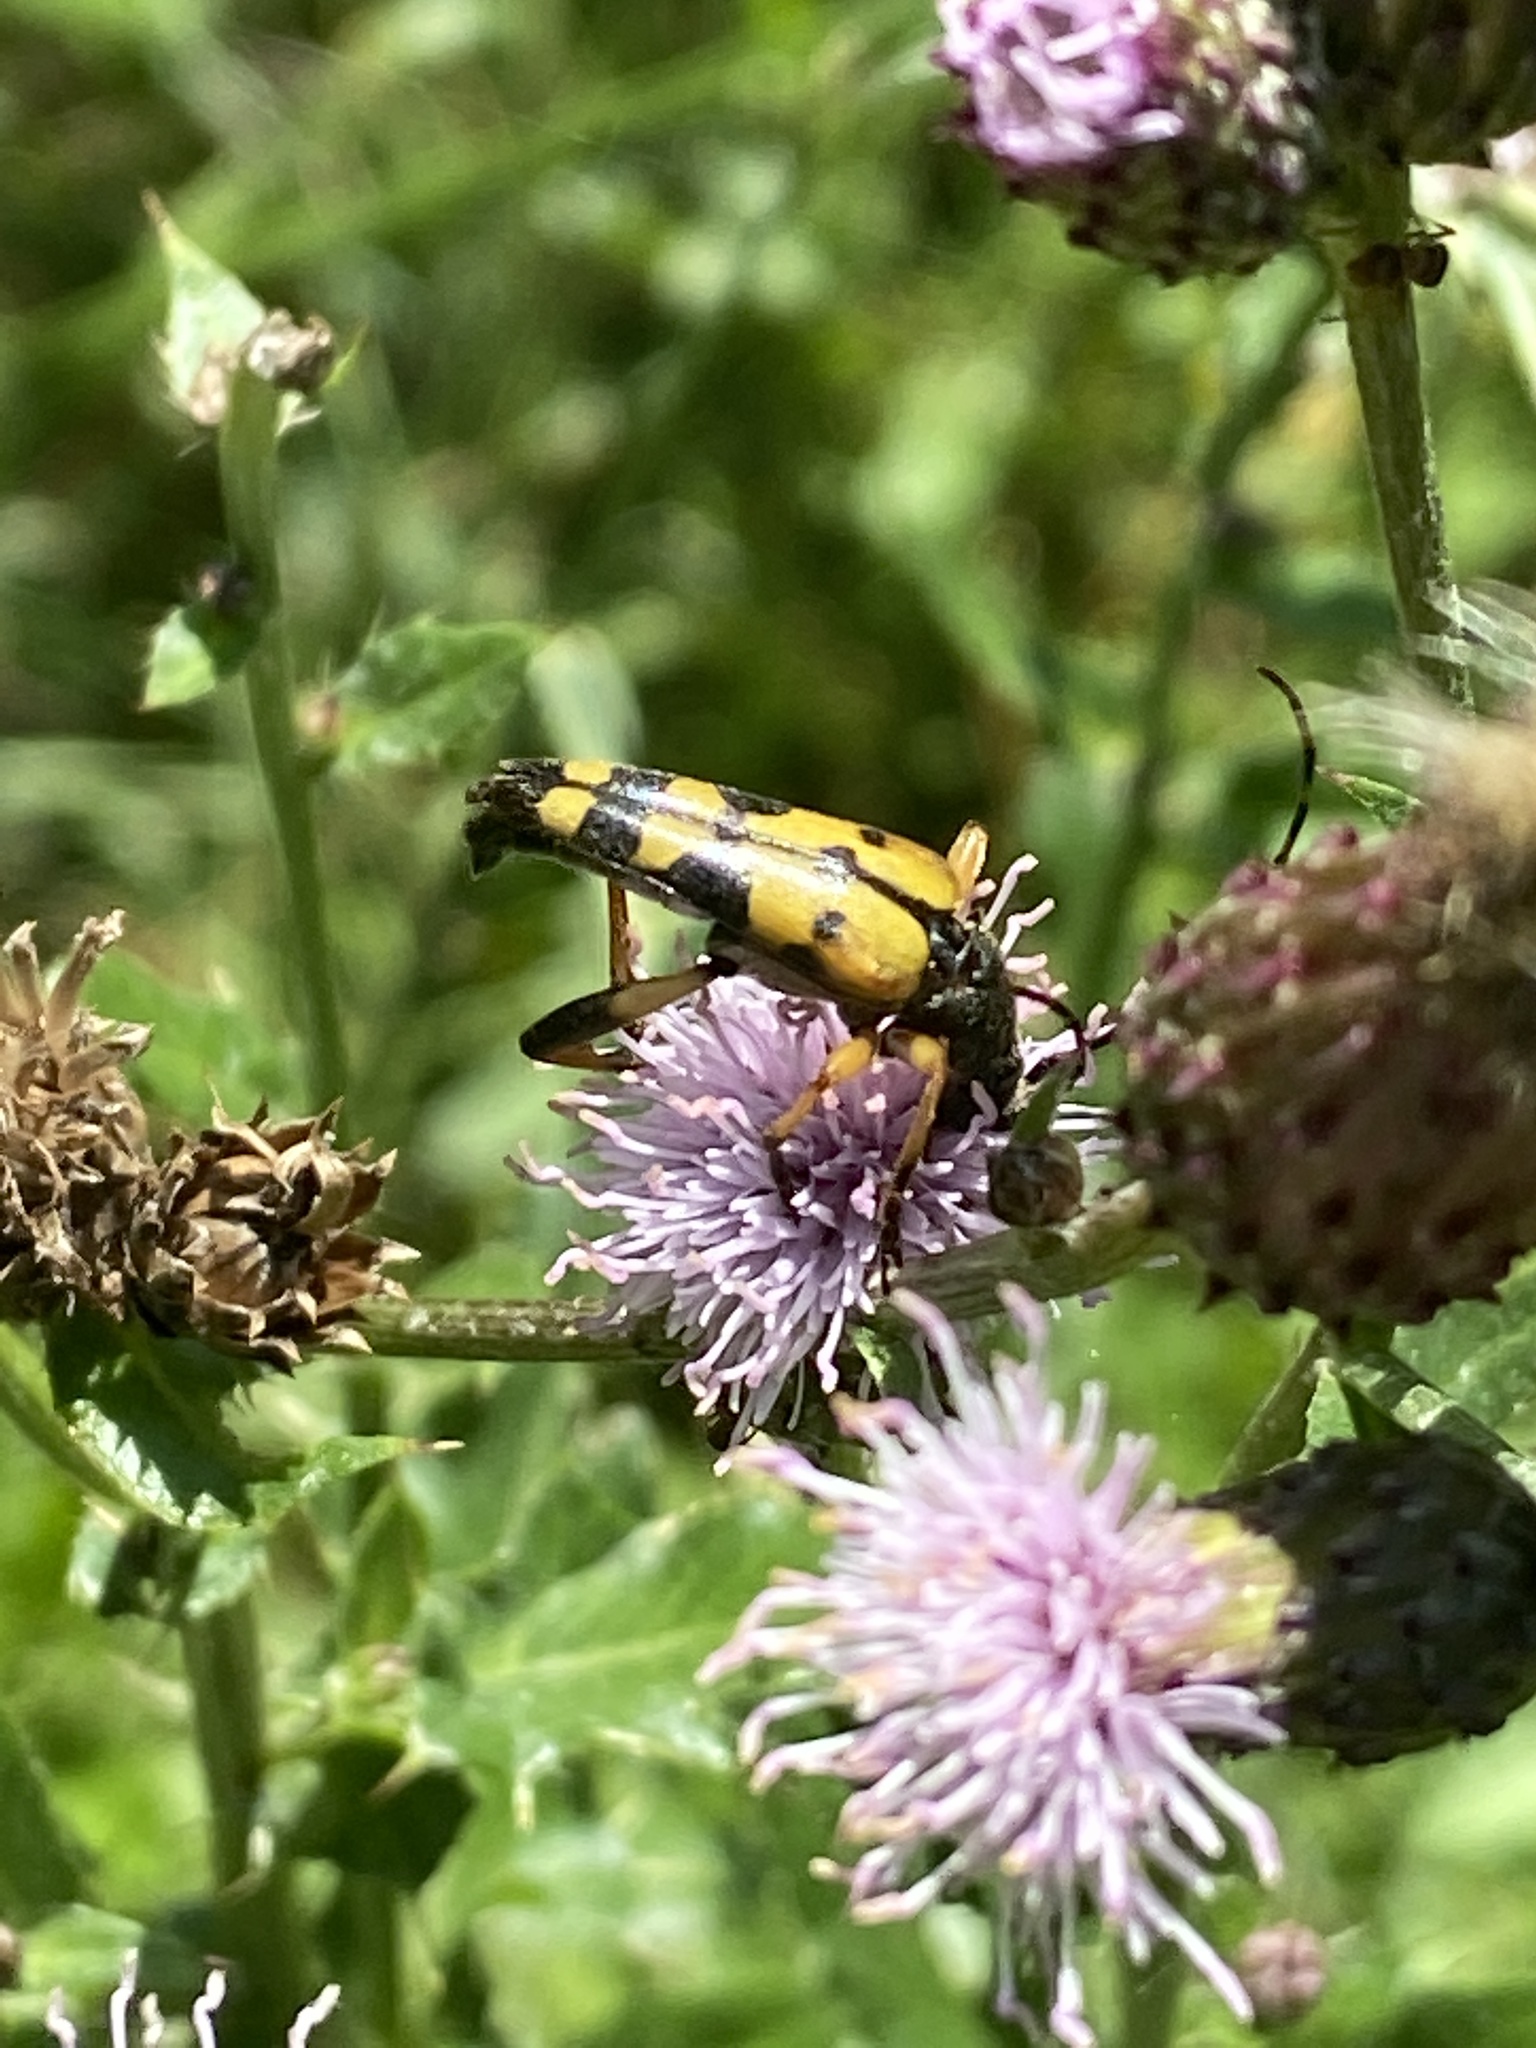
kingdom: Animalia
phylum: Arthropoda
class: Insecta
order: Coleoptera
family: Cerambycidae
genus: Rutpela
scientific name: Rutpela maculata
